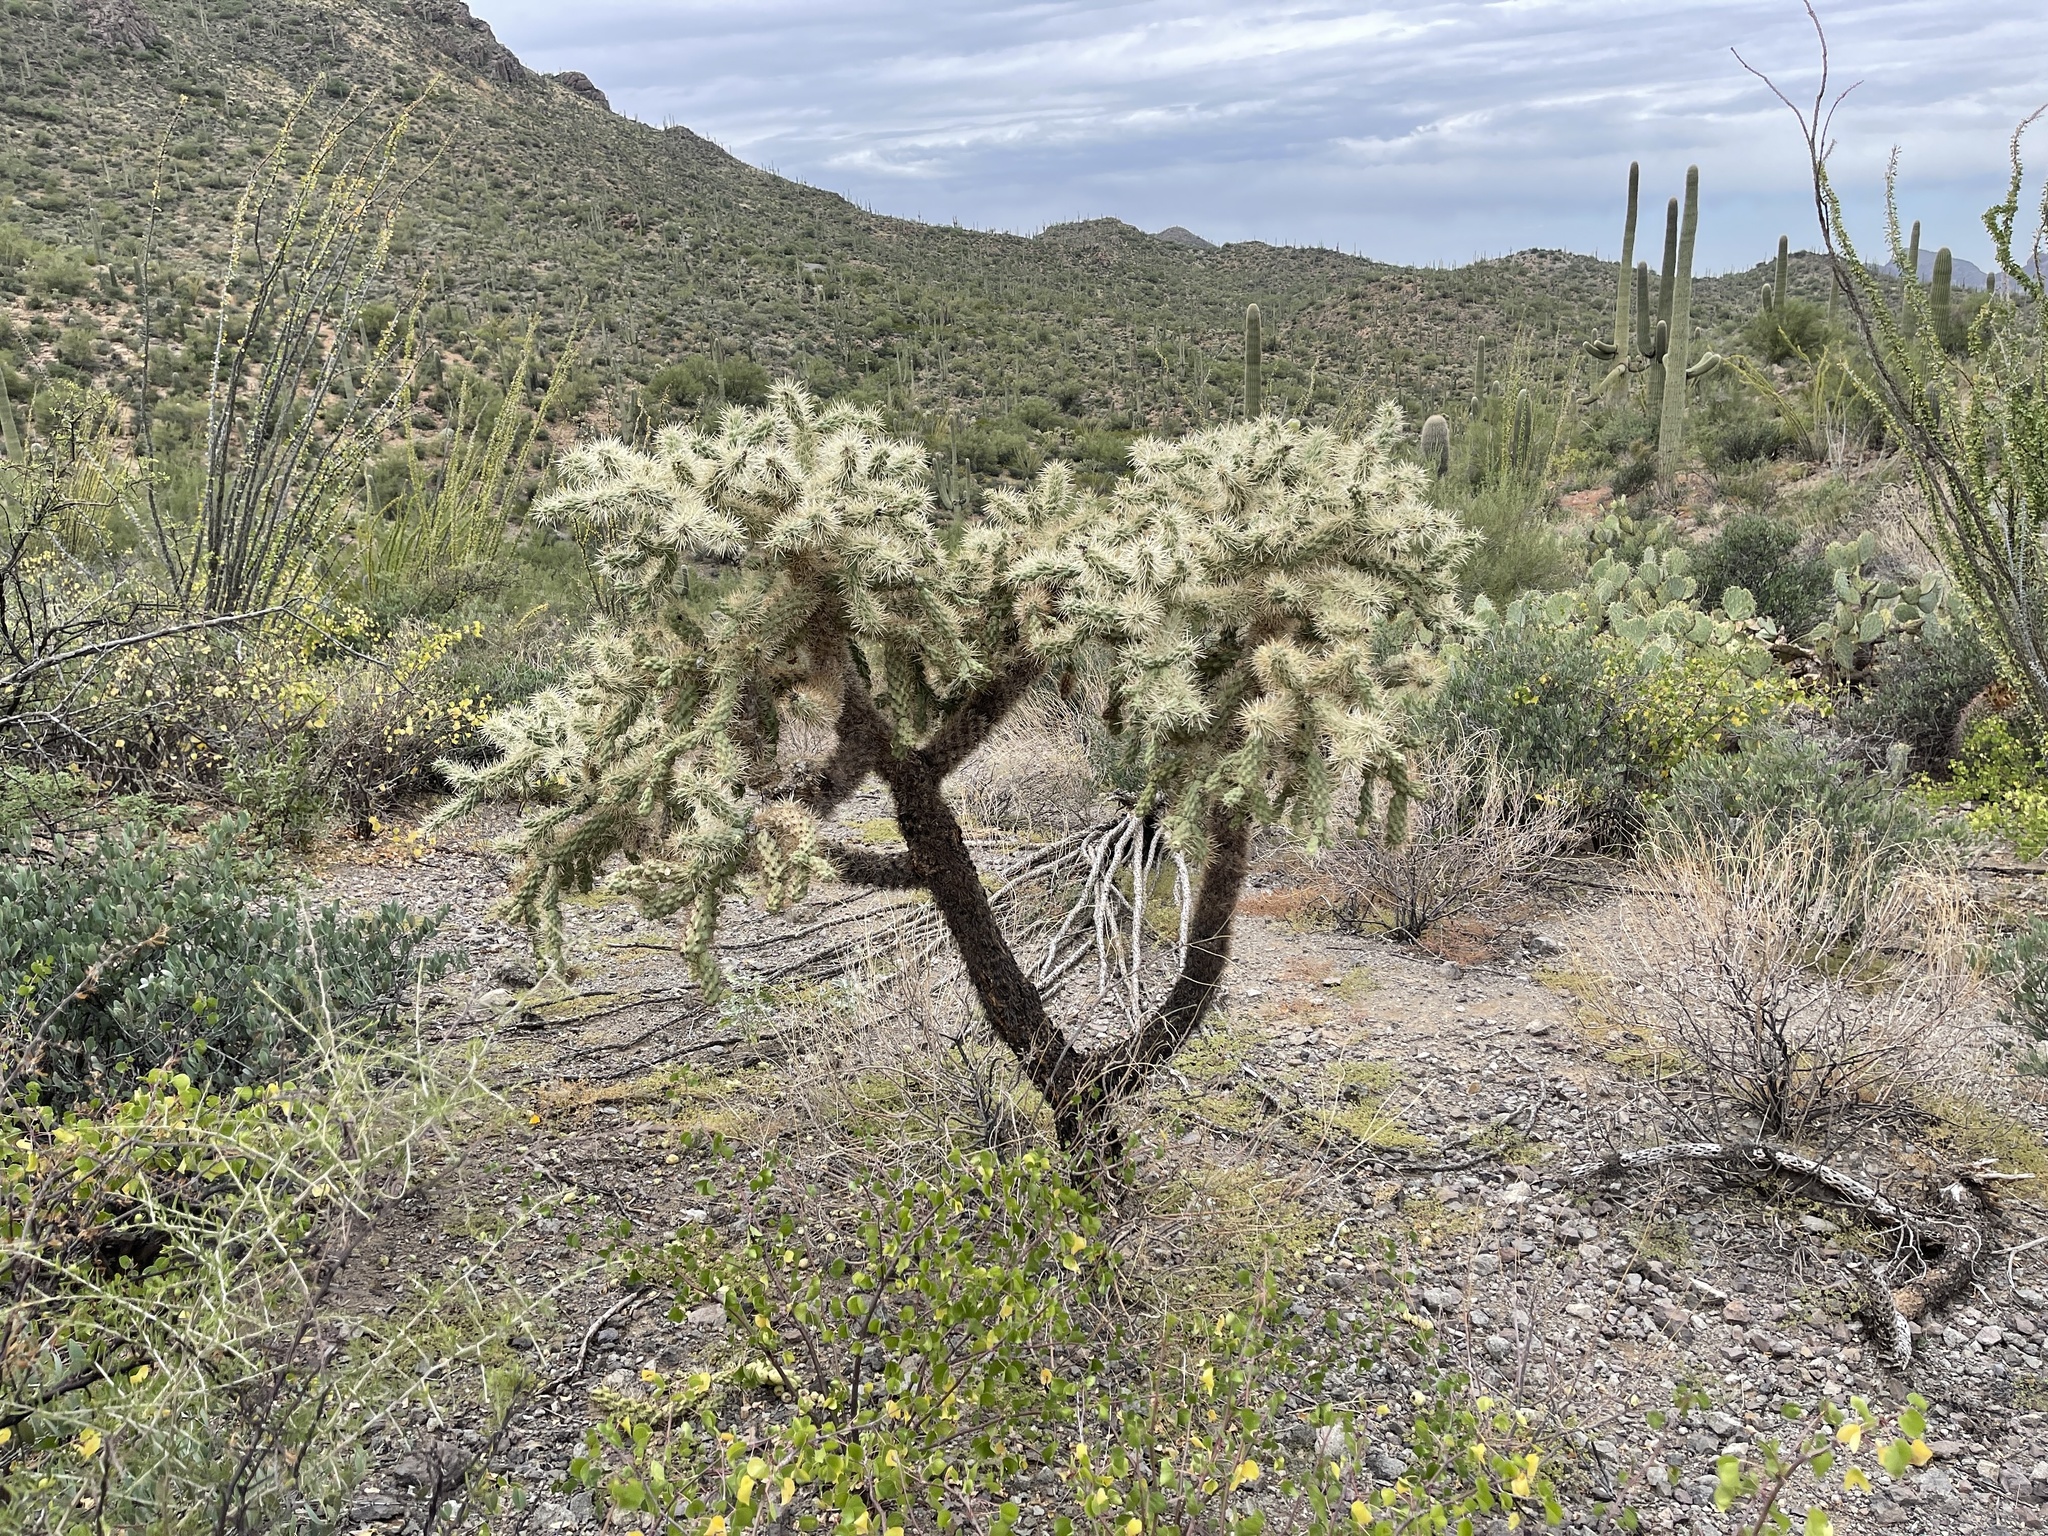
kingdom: Plantae
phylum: Tracheophyta
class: Magnoliopsida
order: Caryophyllales
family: Cactaceae
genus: Cylindropuntia
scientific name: Cylindropuntia fulgida
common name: Jumping cholla
